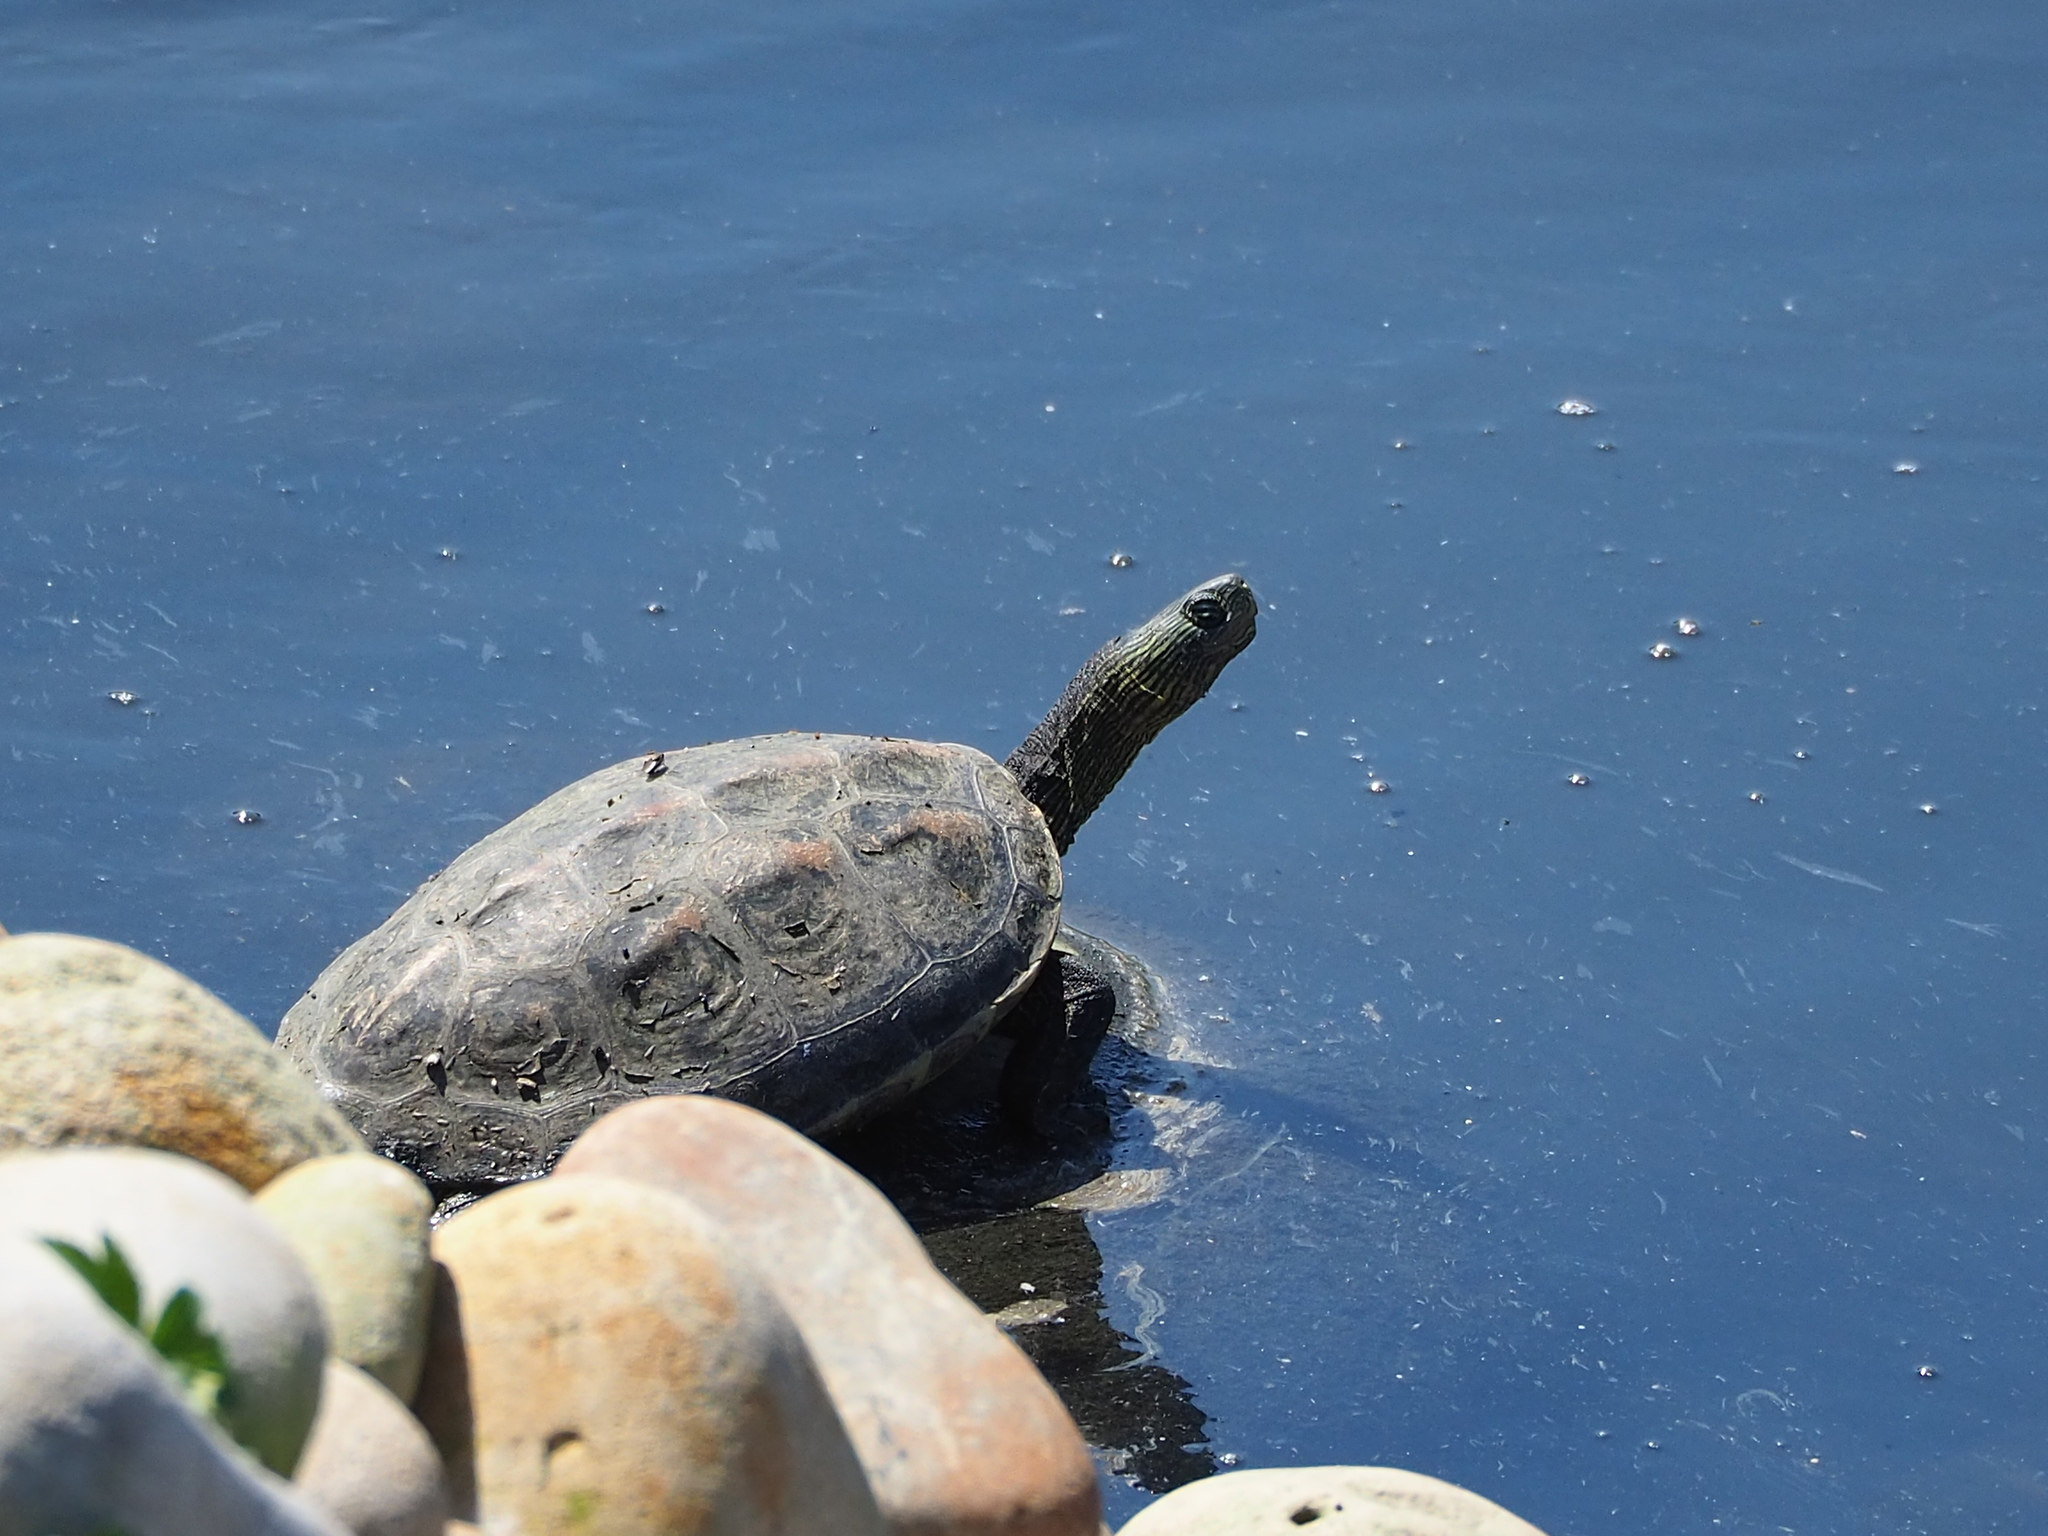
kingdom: Animalia
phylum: Chordata
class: Testudines
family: Geoemydidae
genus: Mauremys
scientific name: Mauremys sinensis
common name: Chinese stripe-necked turtle
